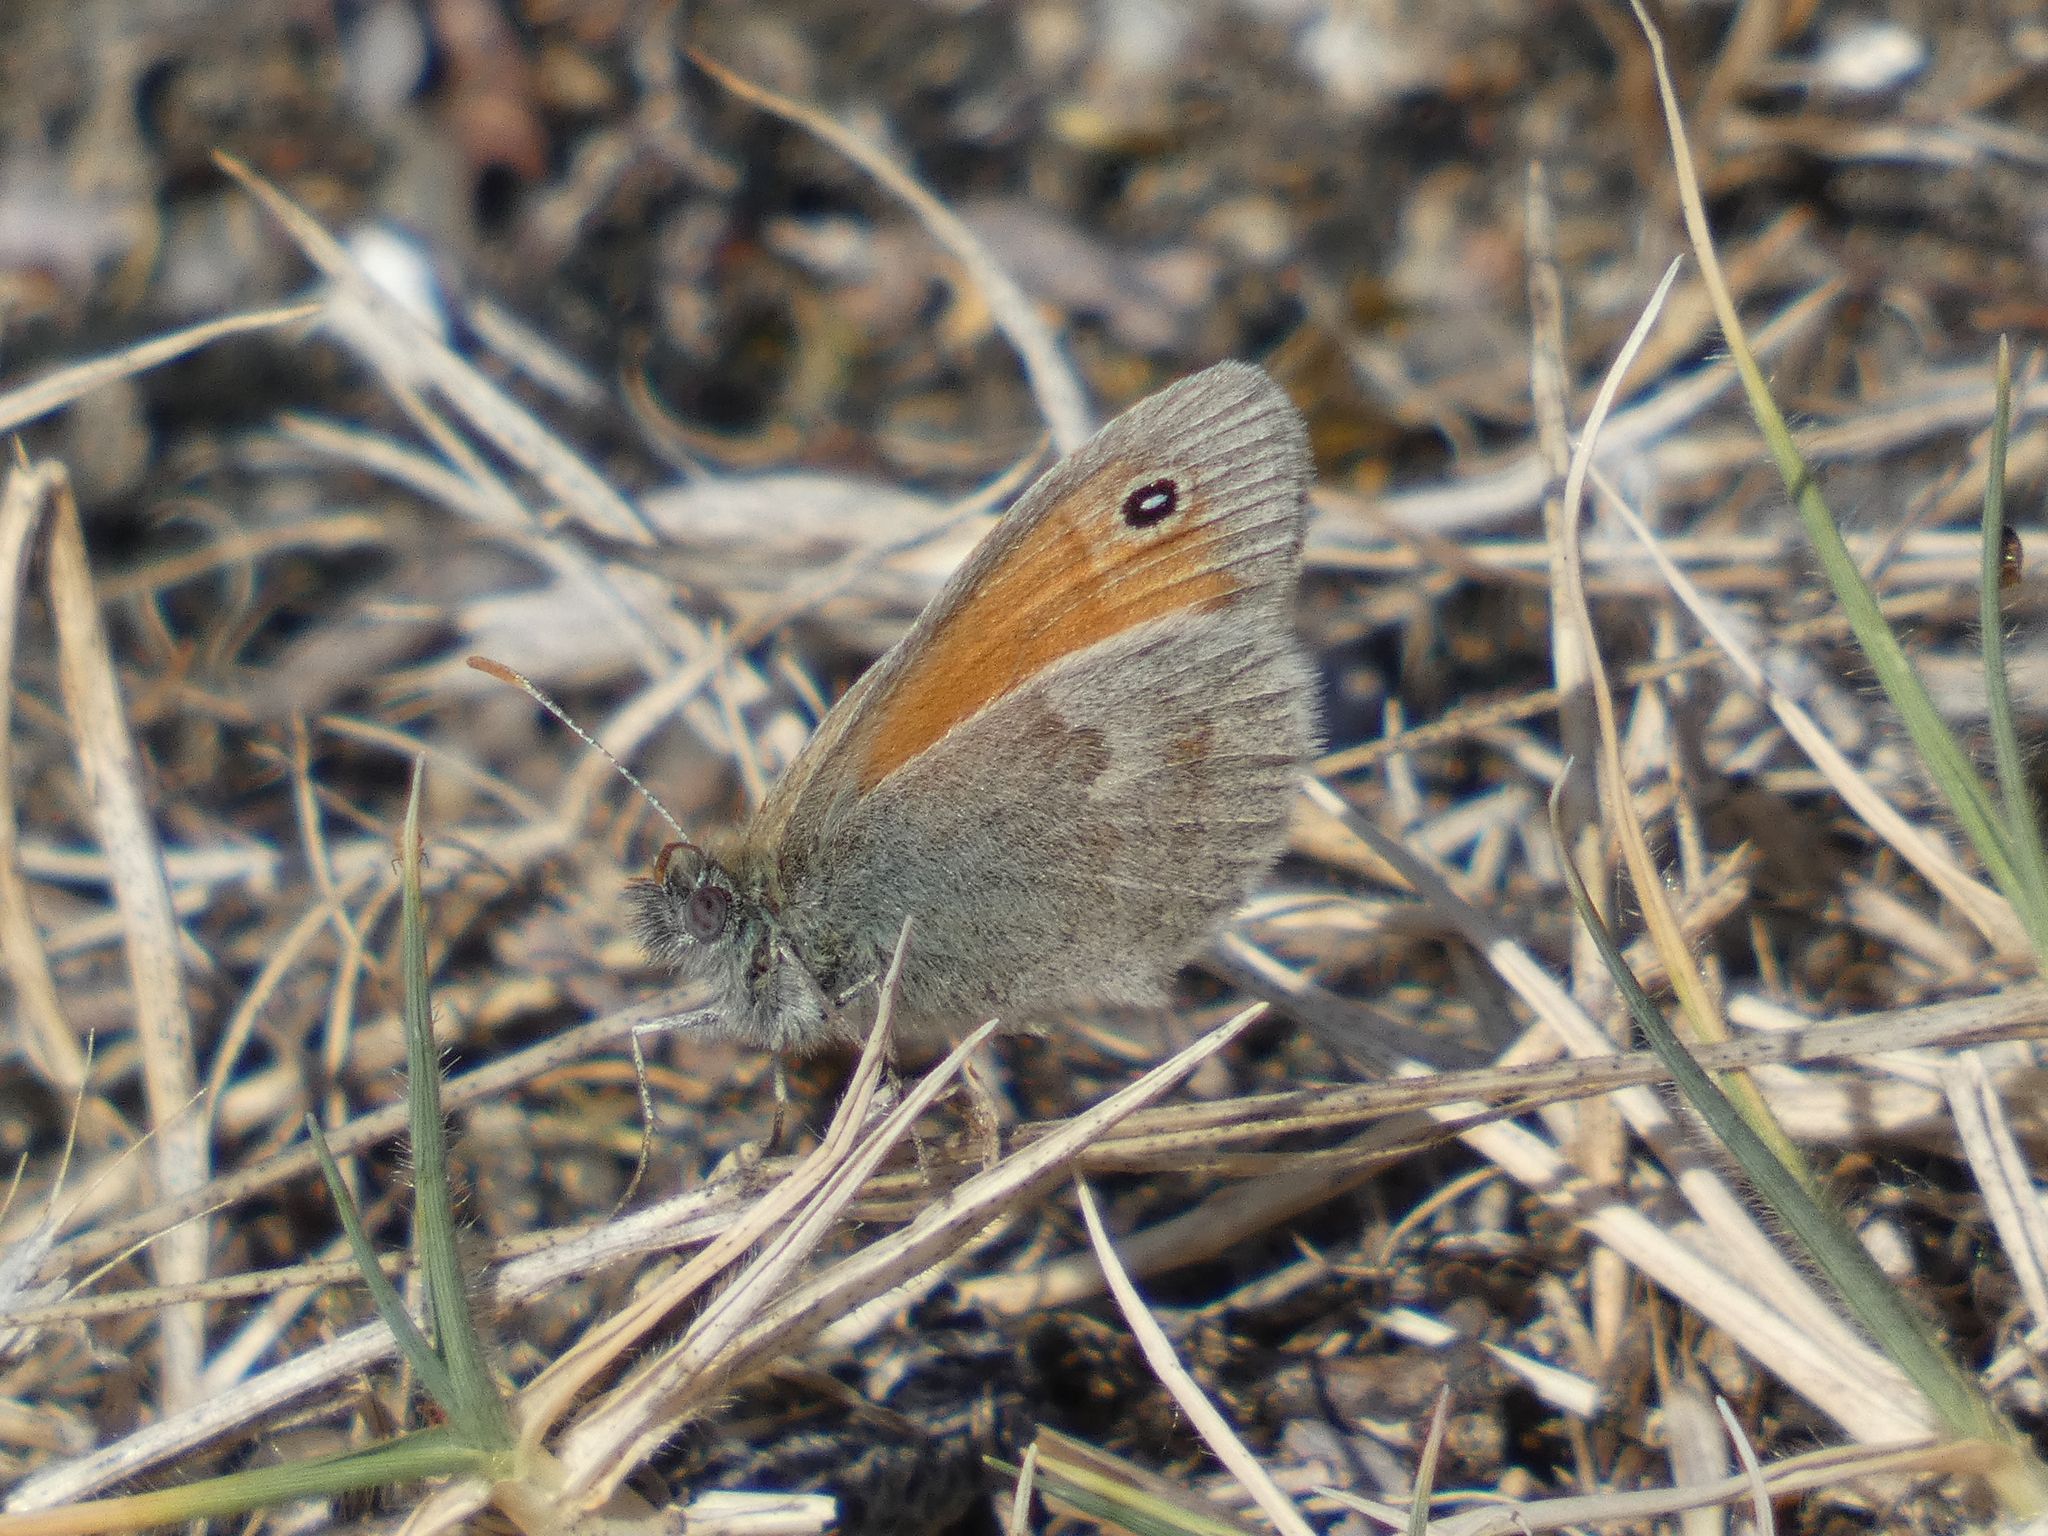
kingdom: Animalia
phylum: Arthropoda
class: Insecta
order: Lepidoptera
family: Nymphalidae
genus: Coenonympha
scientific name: Coenonympha pamphilus
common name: Small heath
